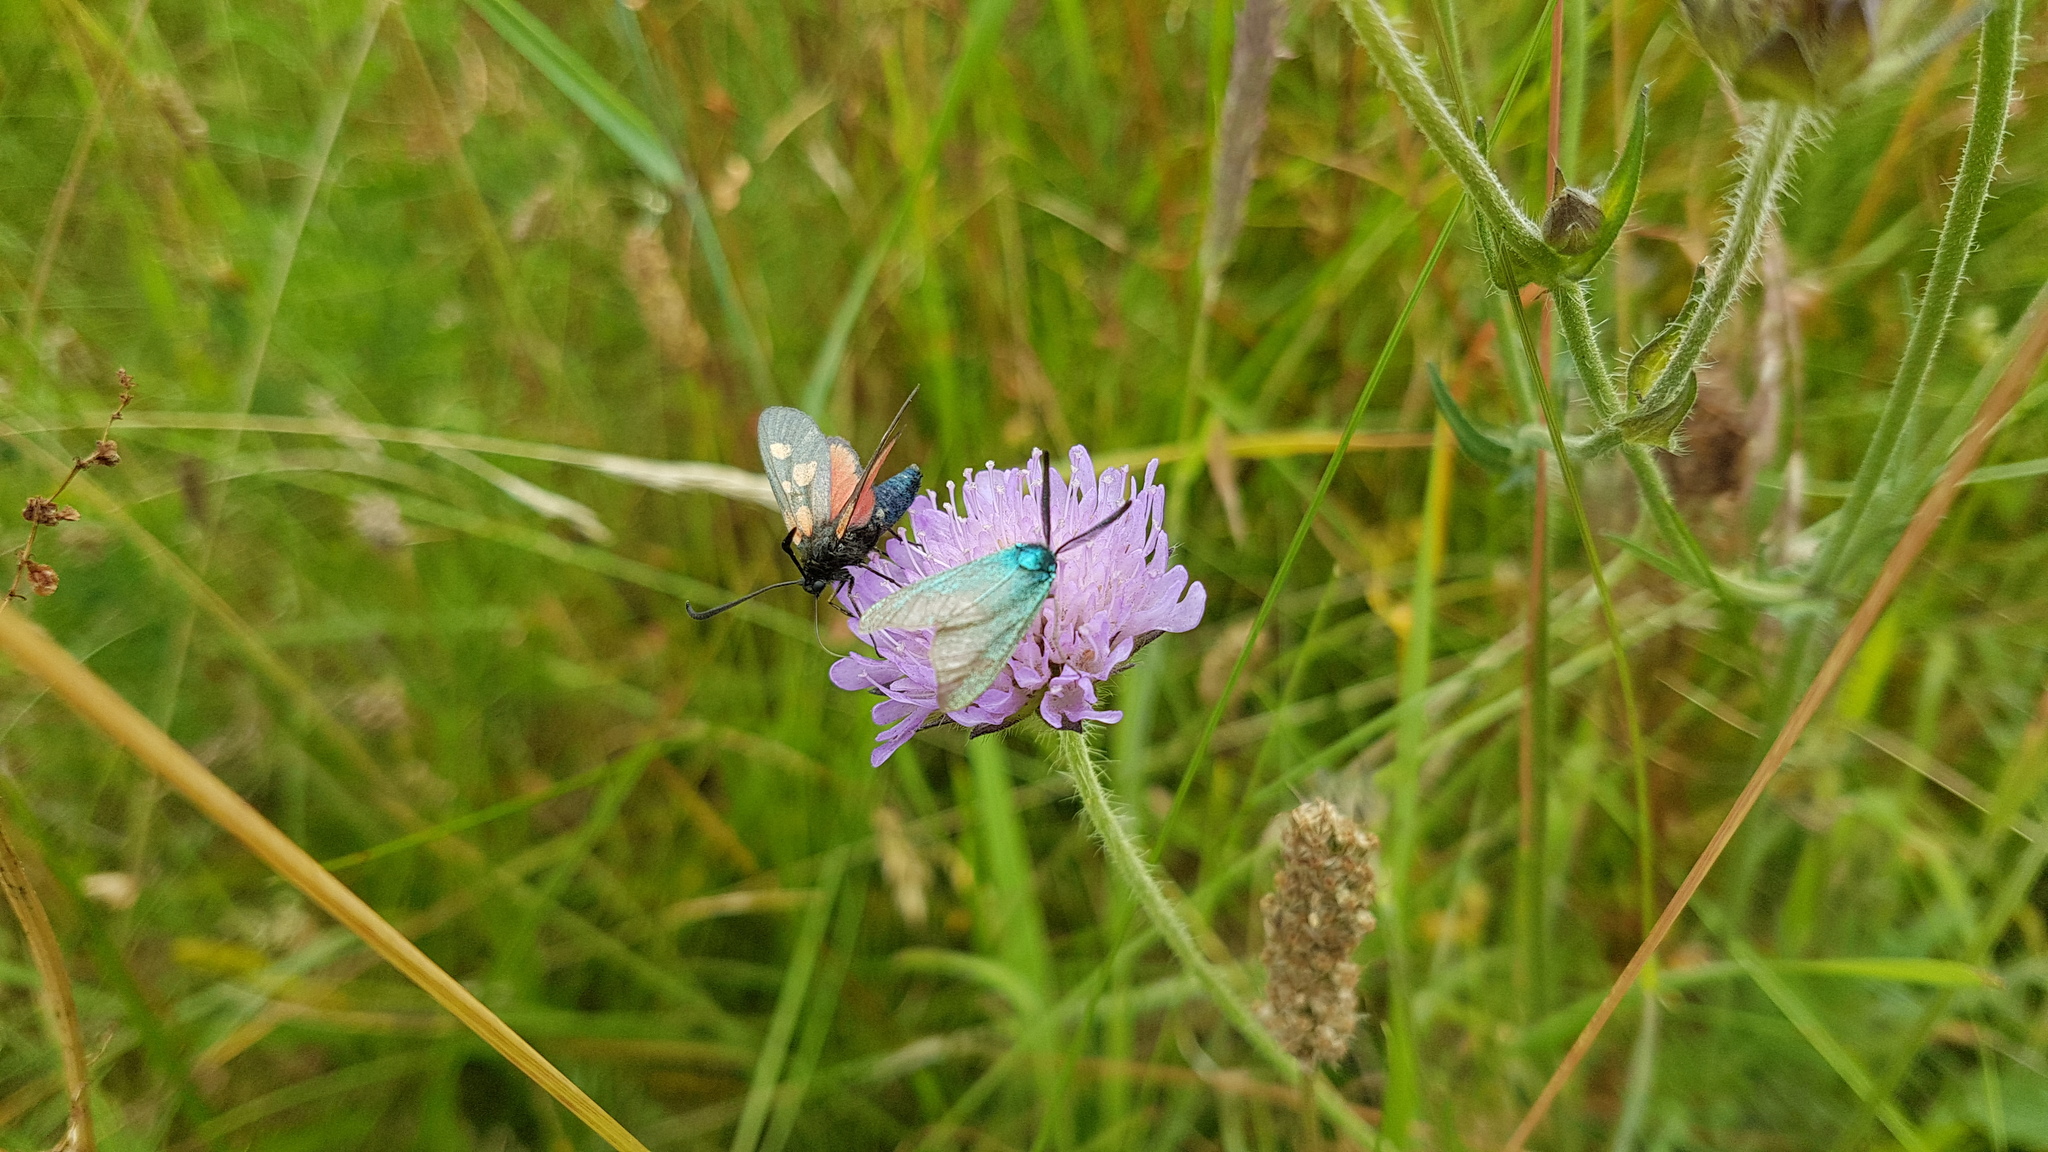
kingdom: Animalia
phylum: Arthropoda
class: Insecta
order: Lepidoptera
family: Zygaenidae
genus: Zygaena
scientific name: Zygaena viciae
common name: New forest burnet
